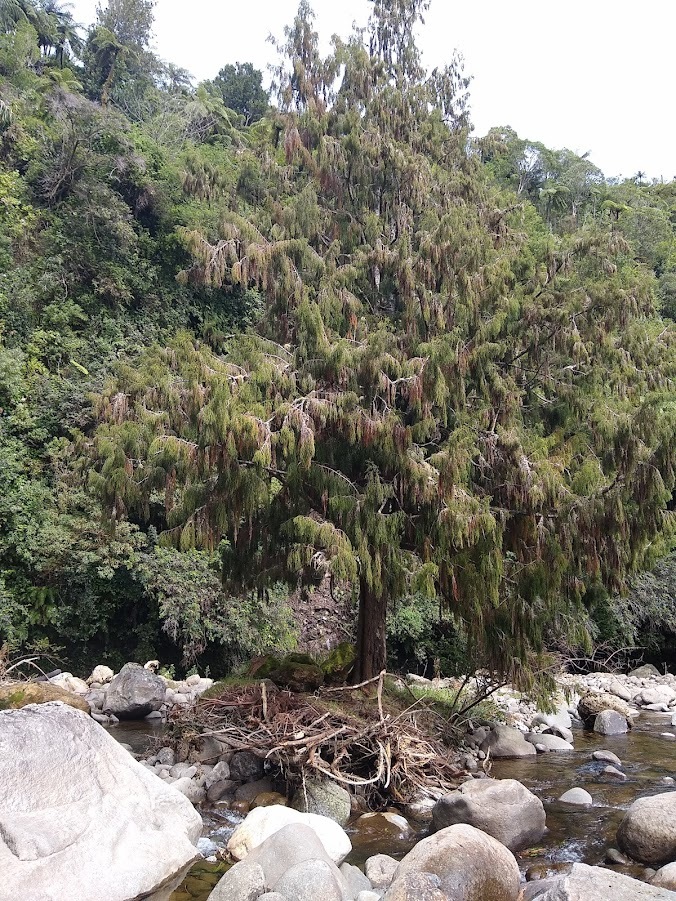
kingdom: Plantae
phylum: Tracheophyta
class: Pinopsida
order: Pinales
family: Podocarpaceae
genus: Dacrydium
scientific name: Dacrydium cupressinum
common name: Red pine
